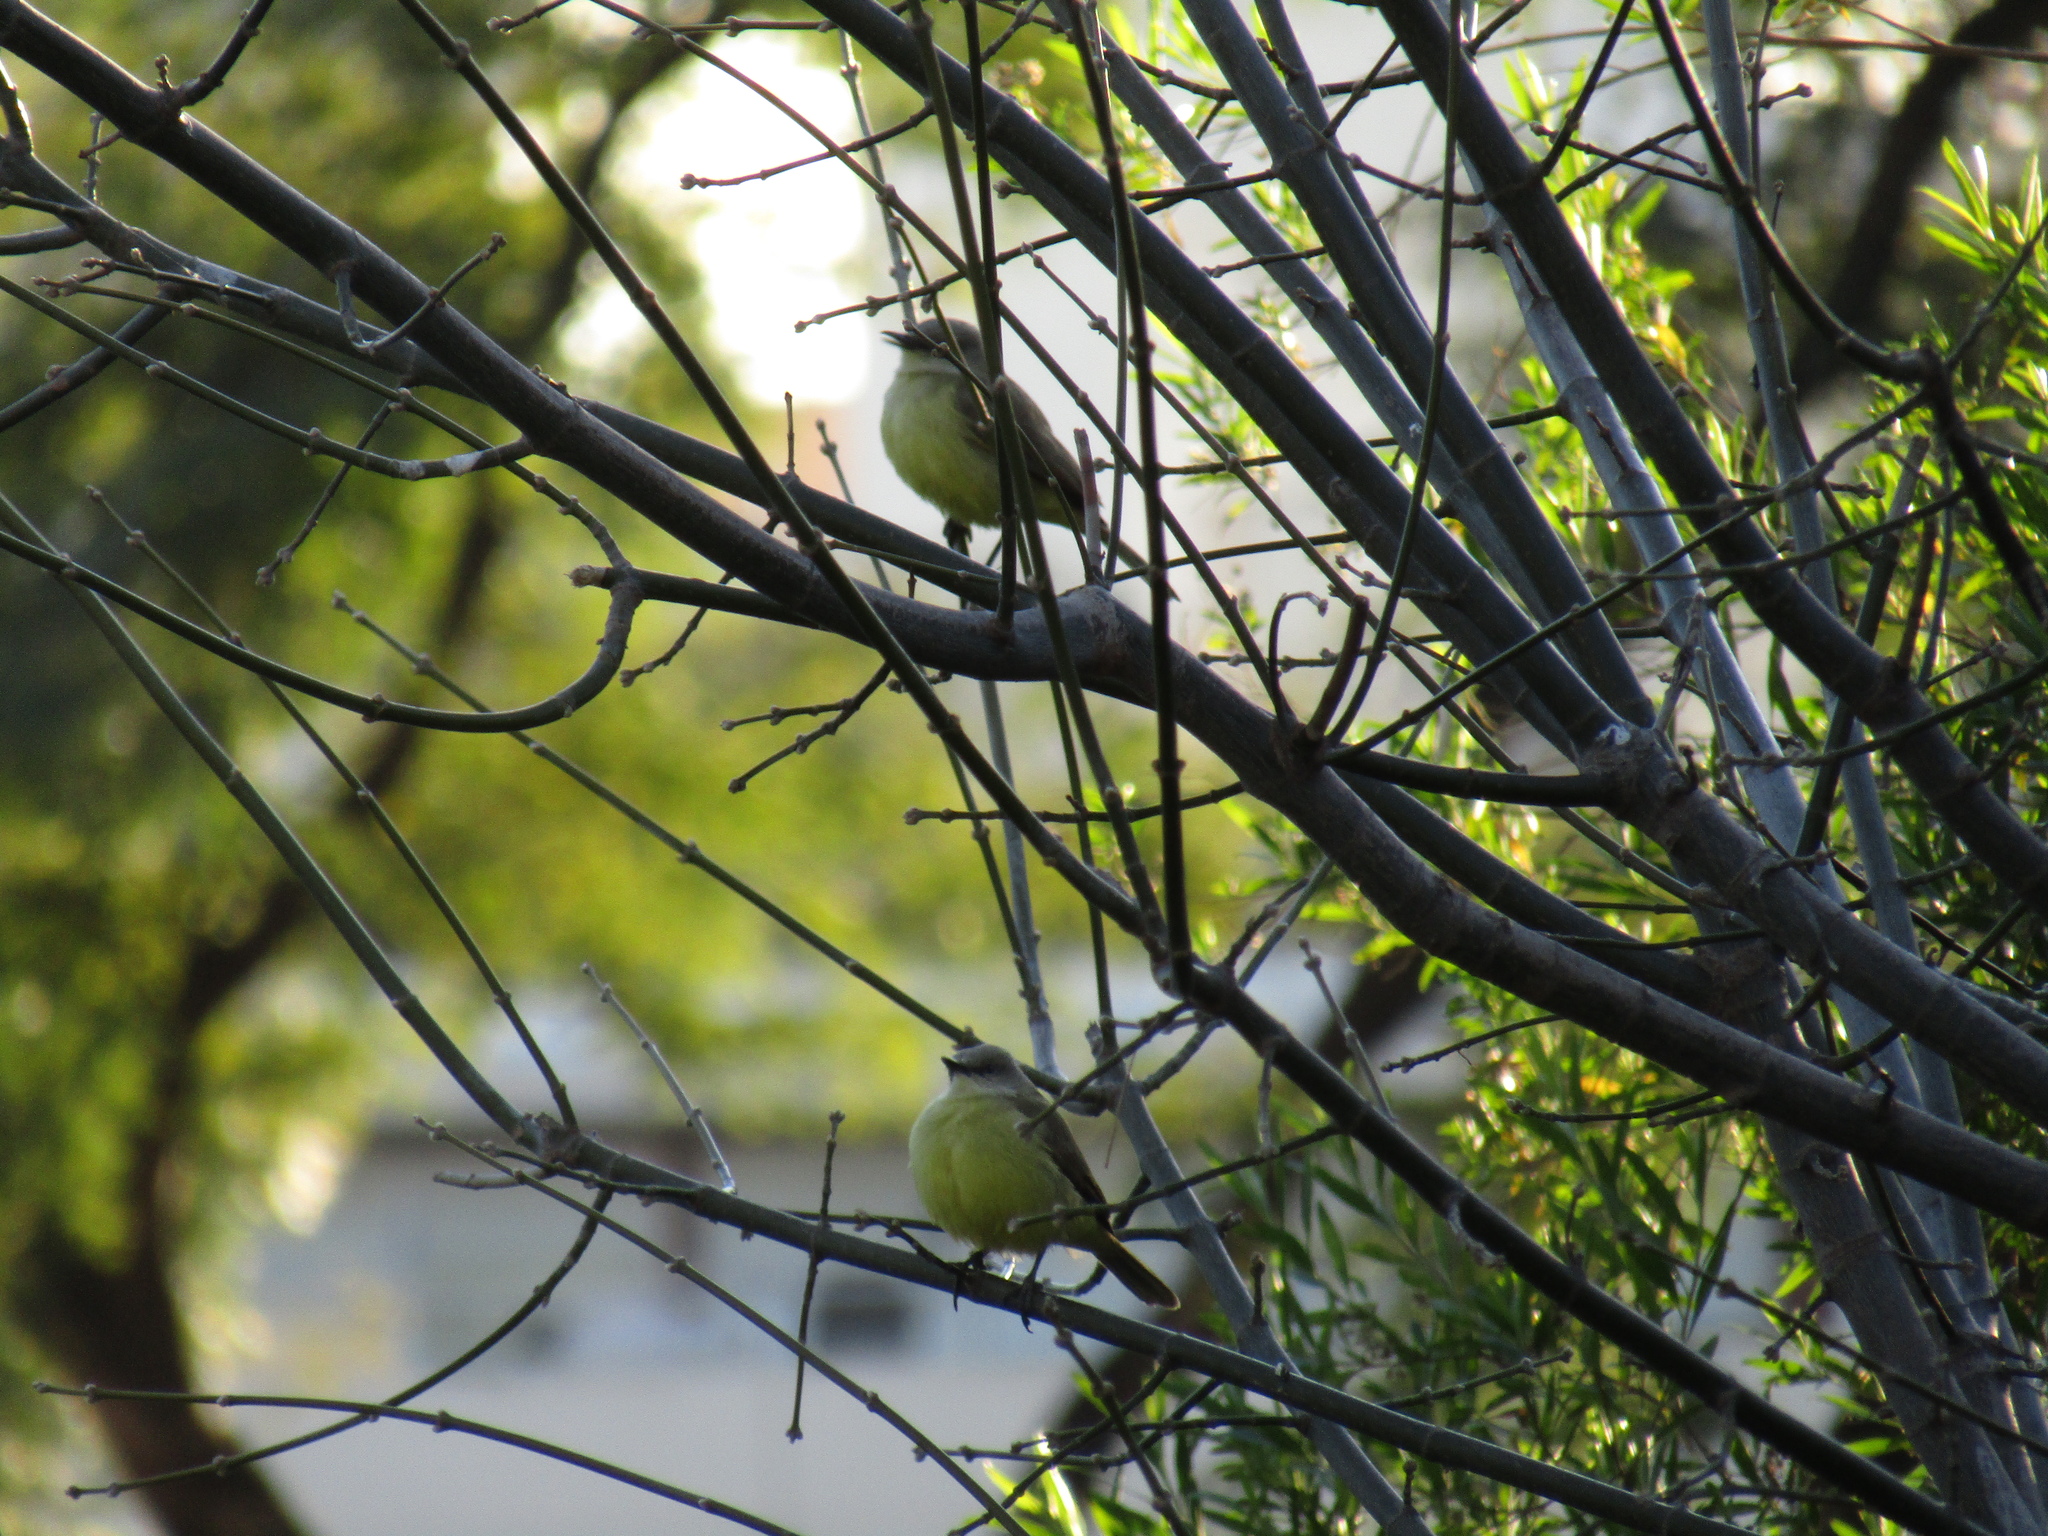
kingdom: Animalia
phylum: Chordata
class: Aves
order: Passeriformes
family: Tyrannidae
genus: Machetornis
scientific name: Machetornis rixosa
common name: Cattle tyrant
